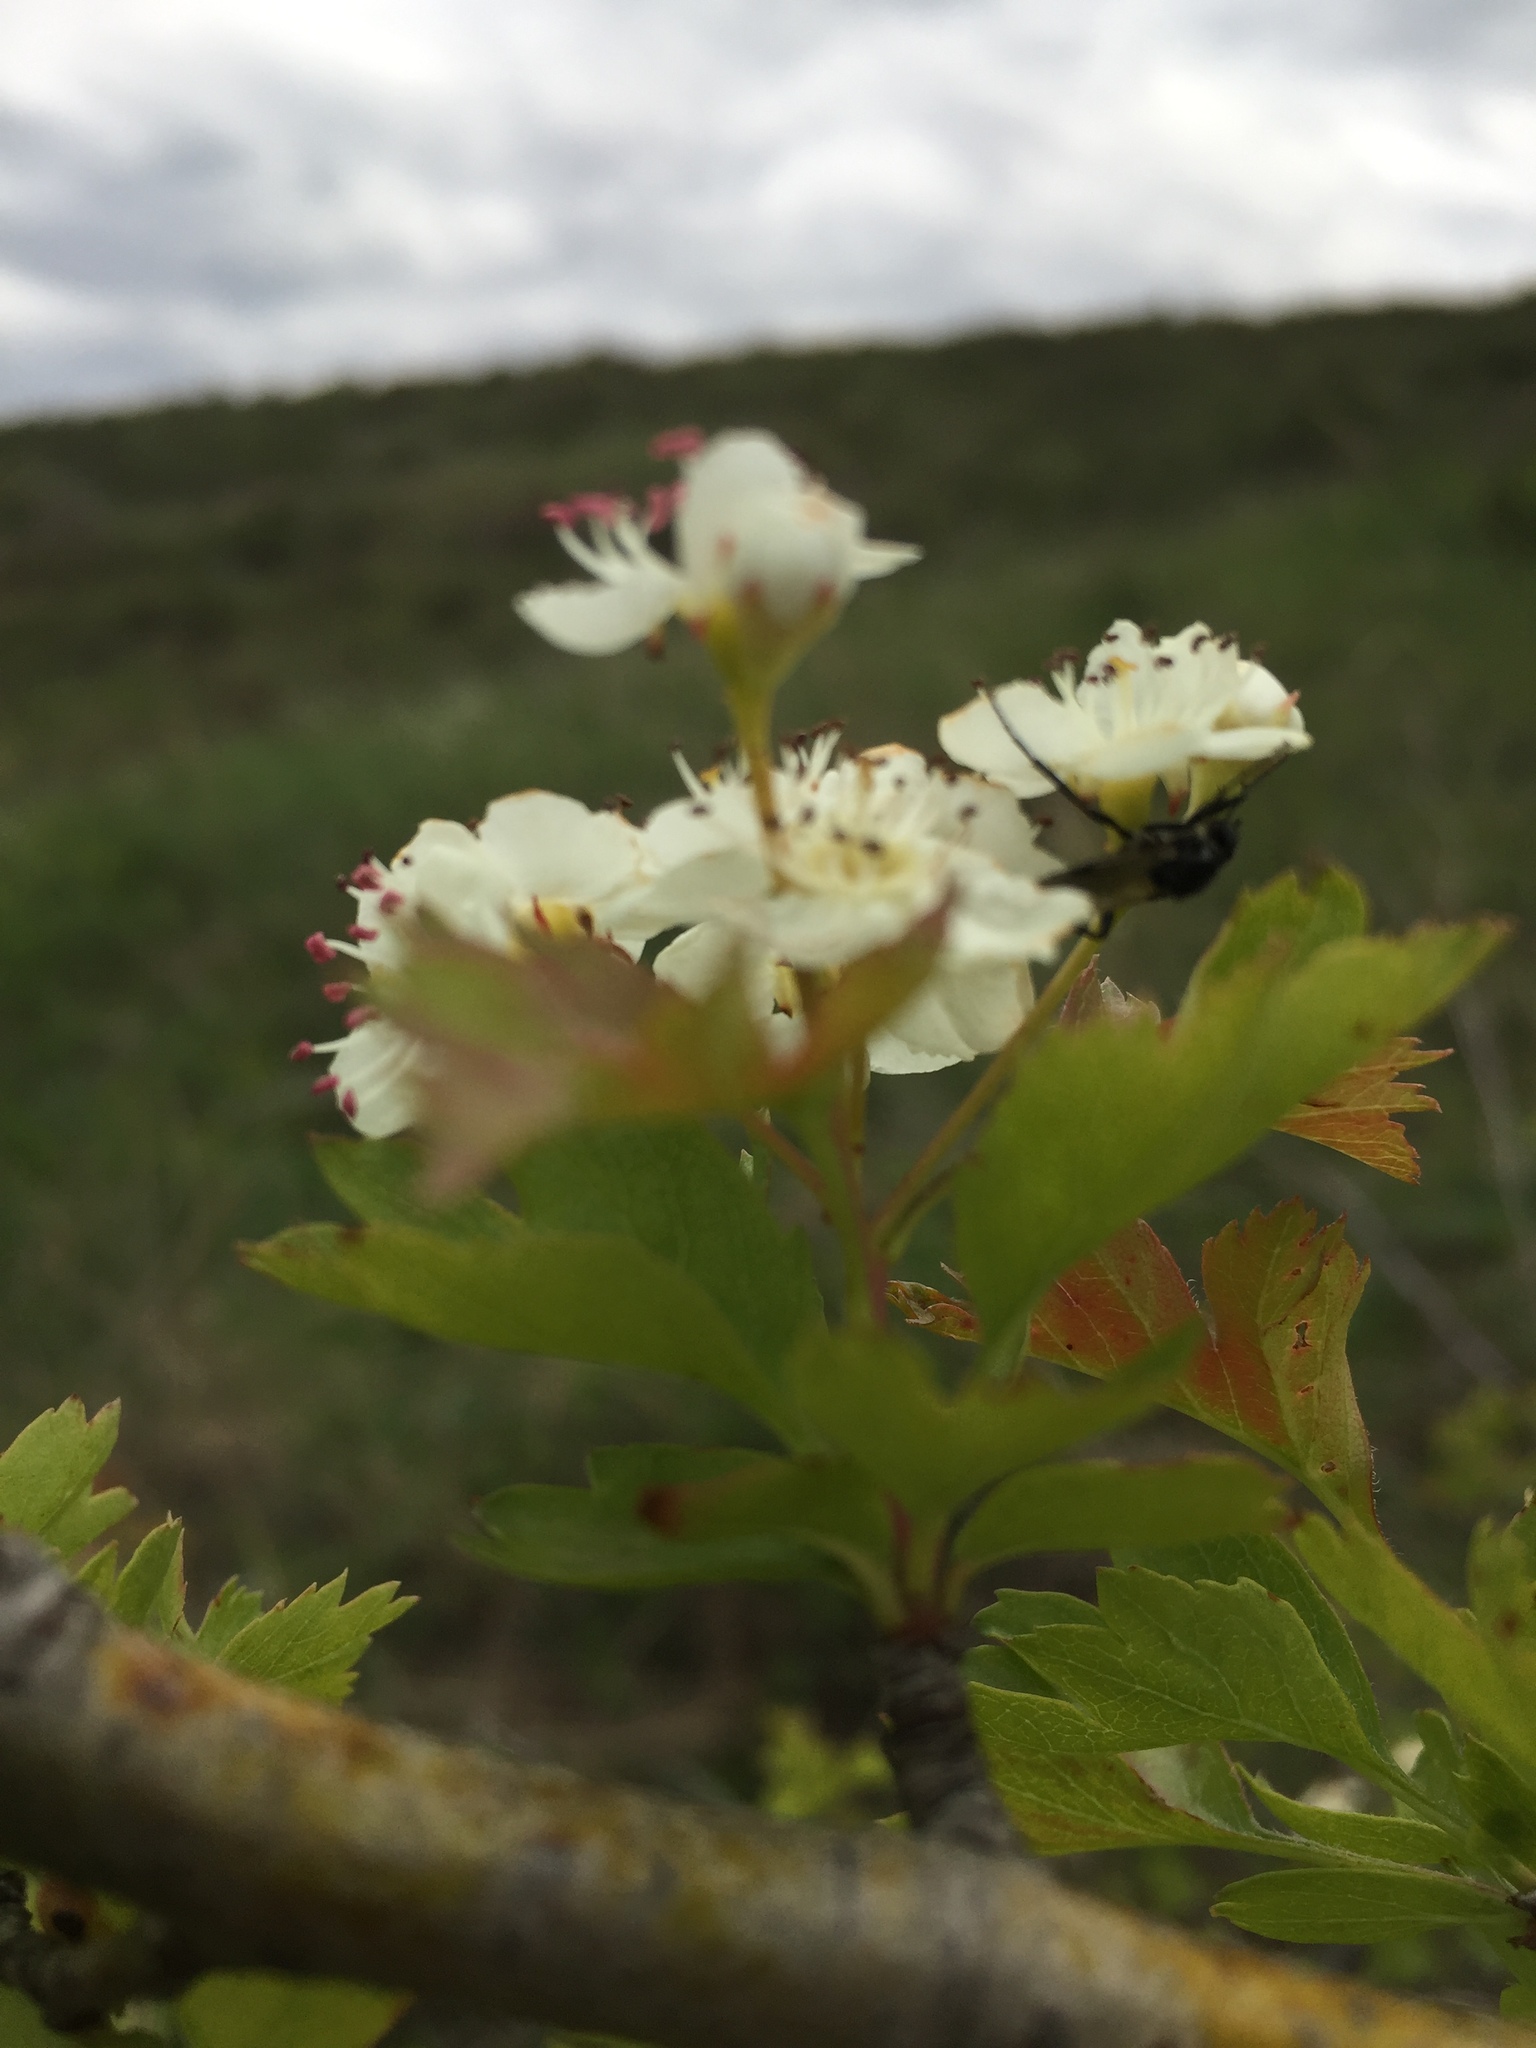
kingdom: Plantae
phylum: Tracheophyta
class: Magnoliopsida
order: Rosales
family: Rosaceae
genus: Crataegus
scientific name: Crataegus monogyna
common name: Hawthorn
